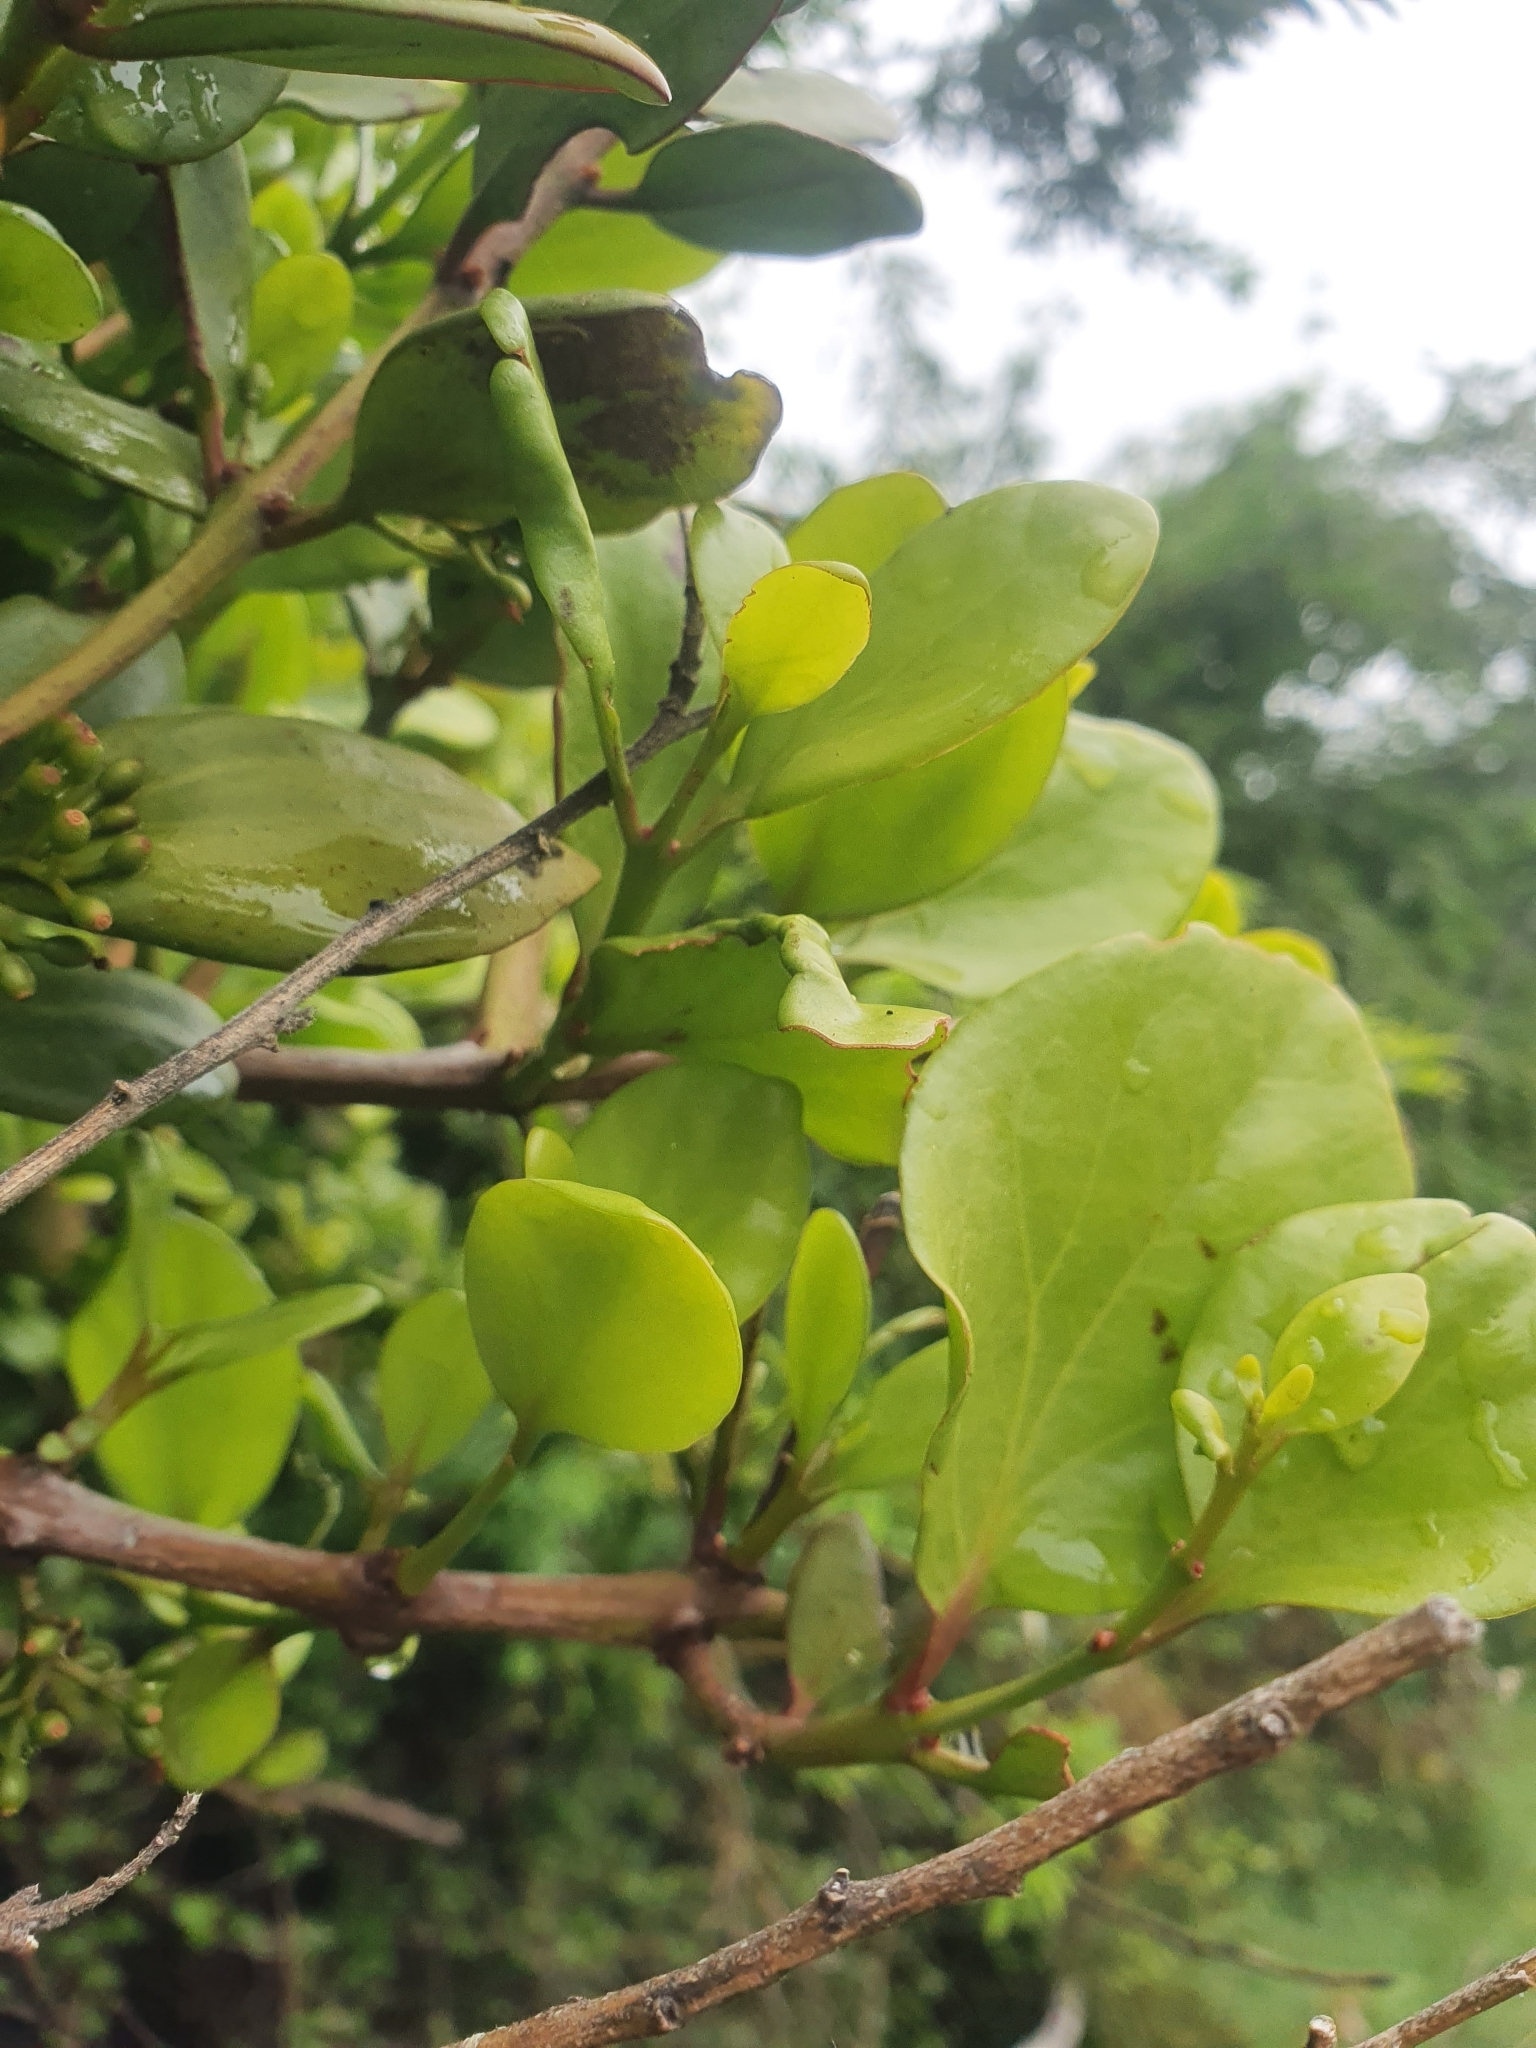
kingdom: Plantae
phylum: Tracheophyta
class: Magnoliopsida
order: Santalales
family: Loranthaceae
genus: Ileostylus
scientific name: Ileostylus micranthus
